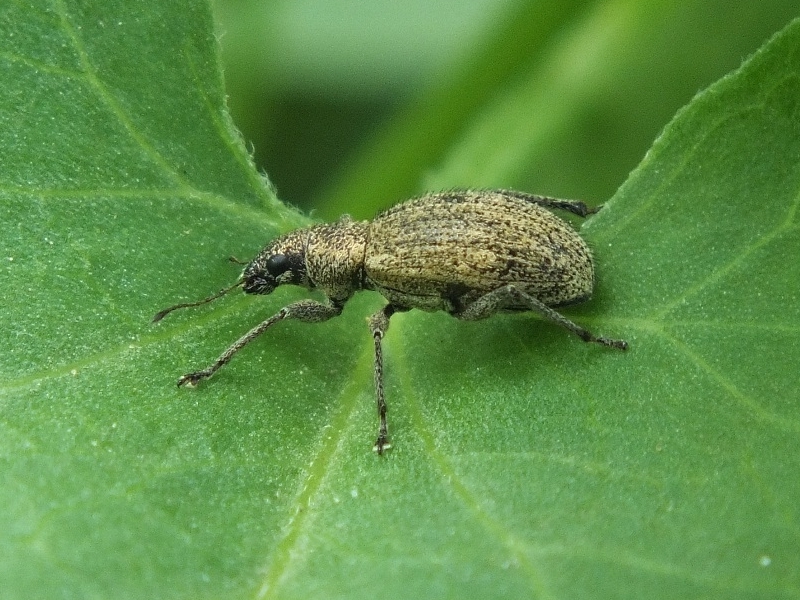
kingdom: Animalia
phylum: Arthropoda
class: Insecta
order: Coleoptera
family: Curculionidae
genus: Polydrusus
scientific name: Polydrusus inustus
